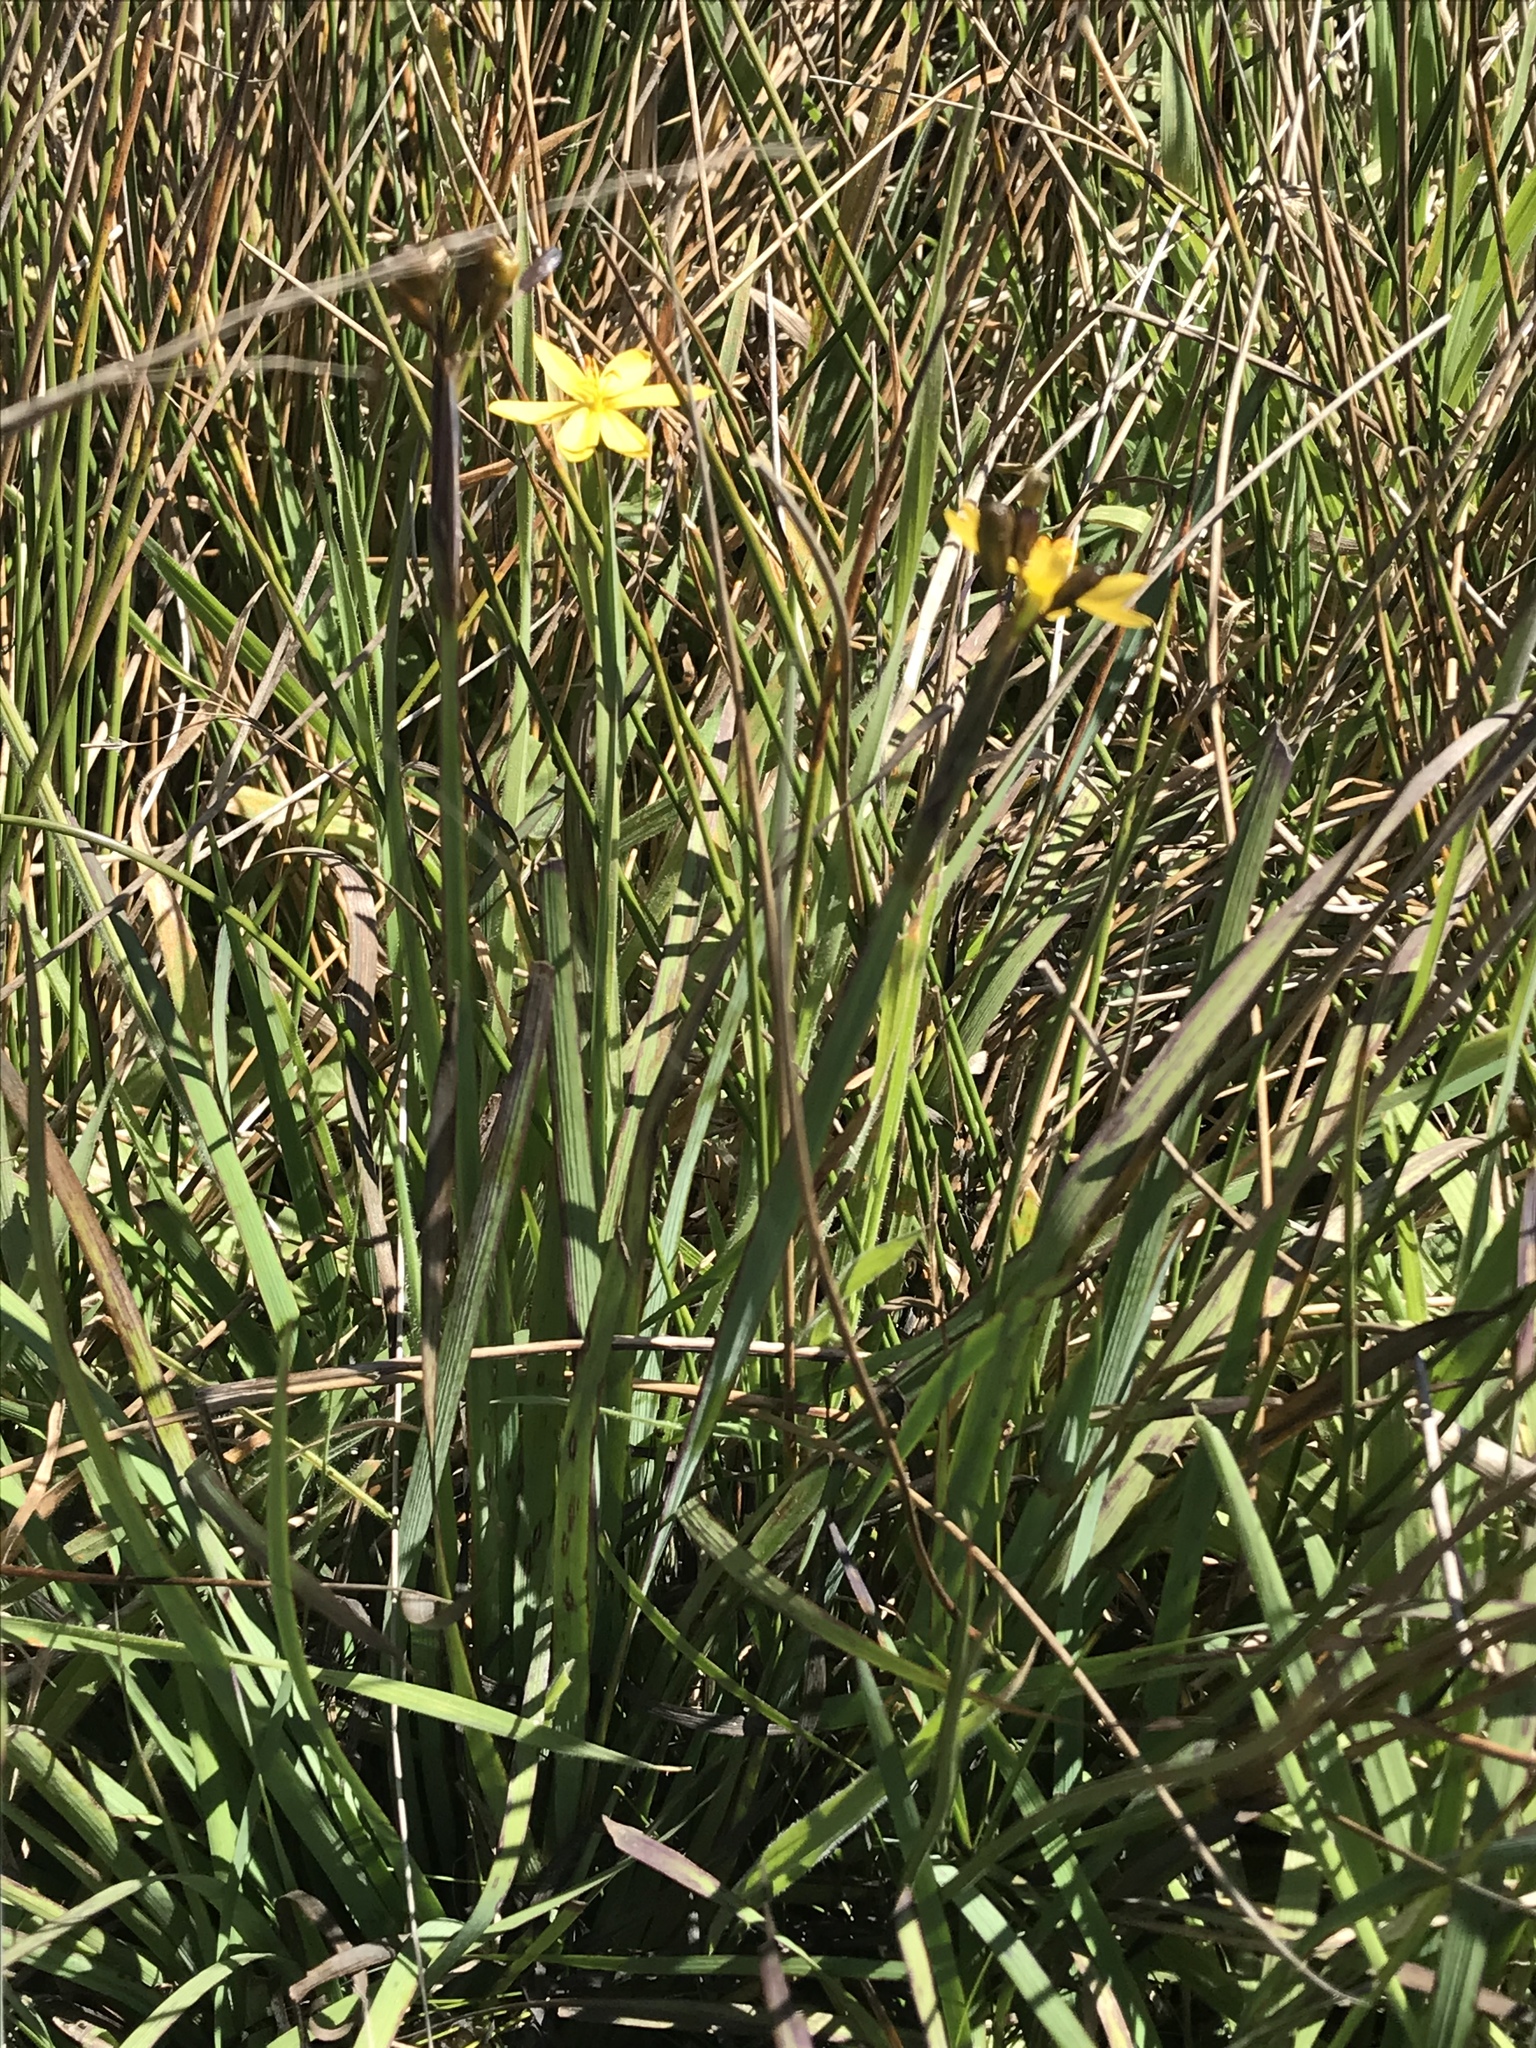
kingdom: Plantae
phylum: Tracheophyta
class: Liliopsida
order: Asparagales
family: Iridaceae
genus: Sisyrinchium
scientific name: Sisyrinchium californicum
